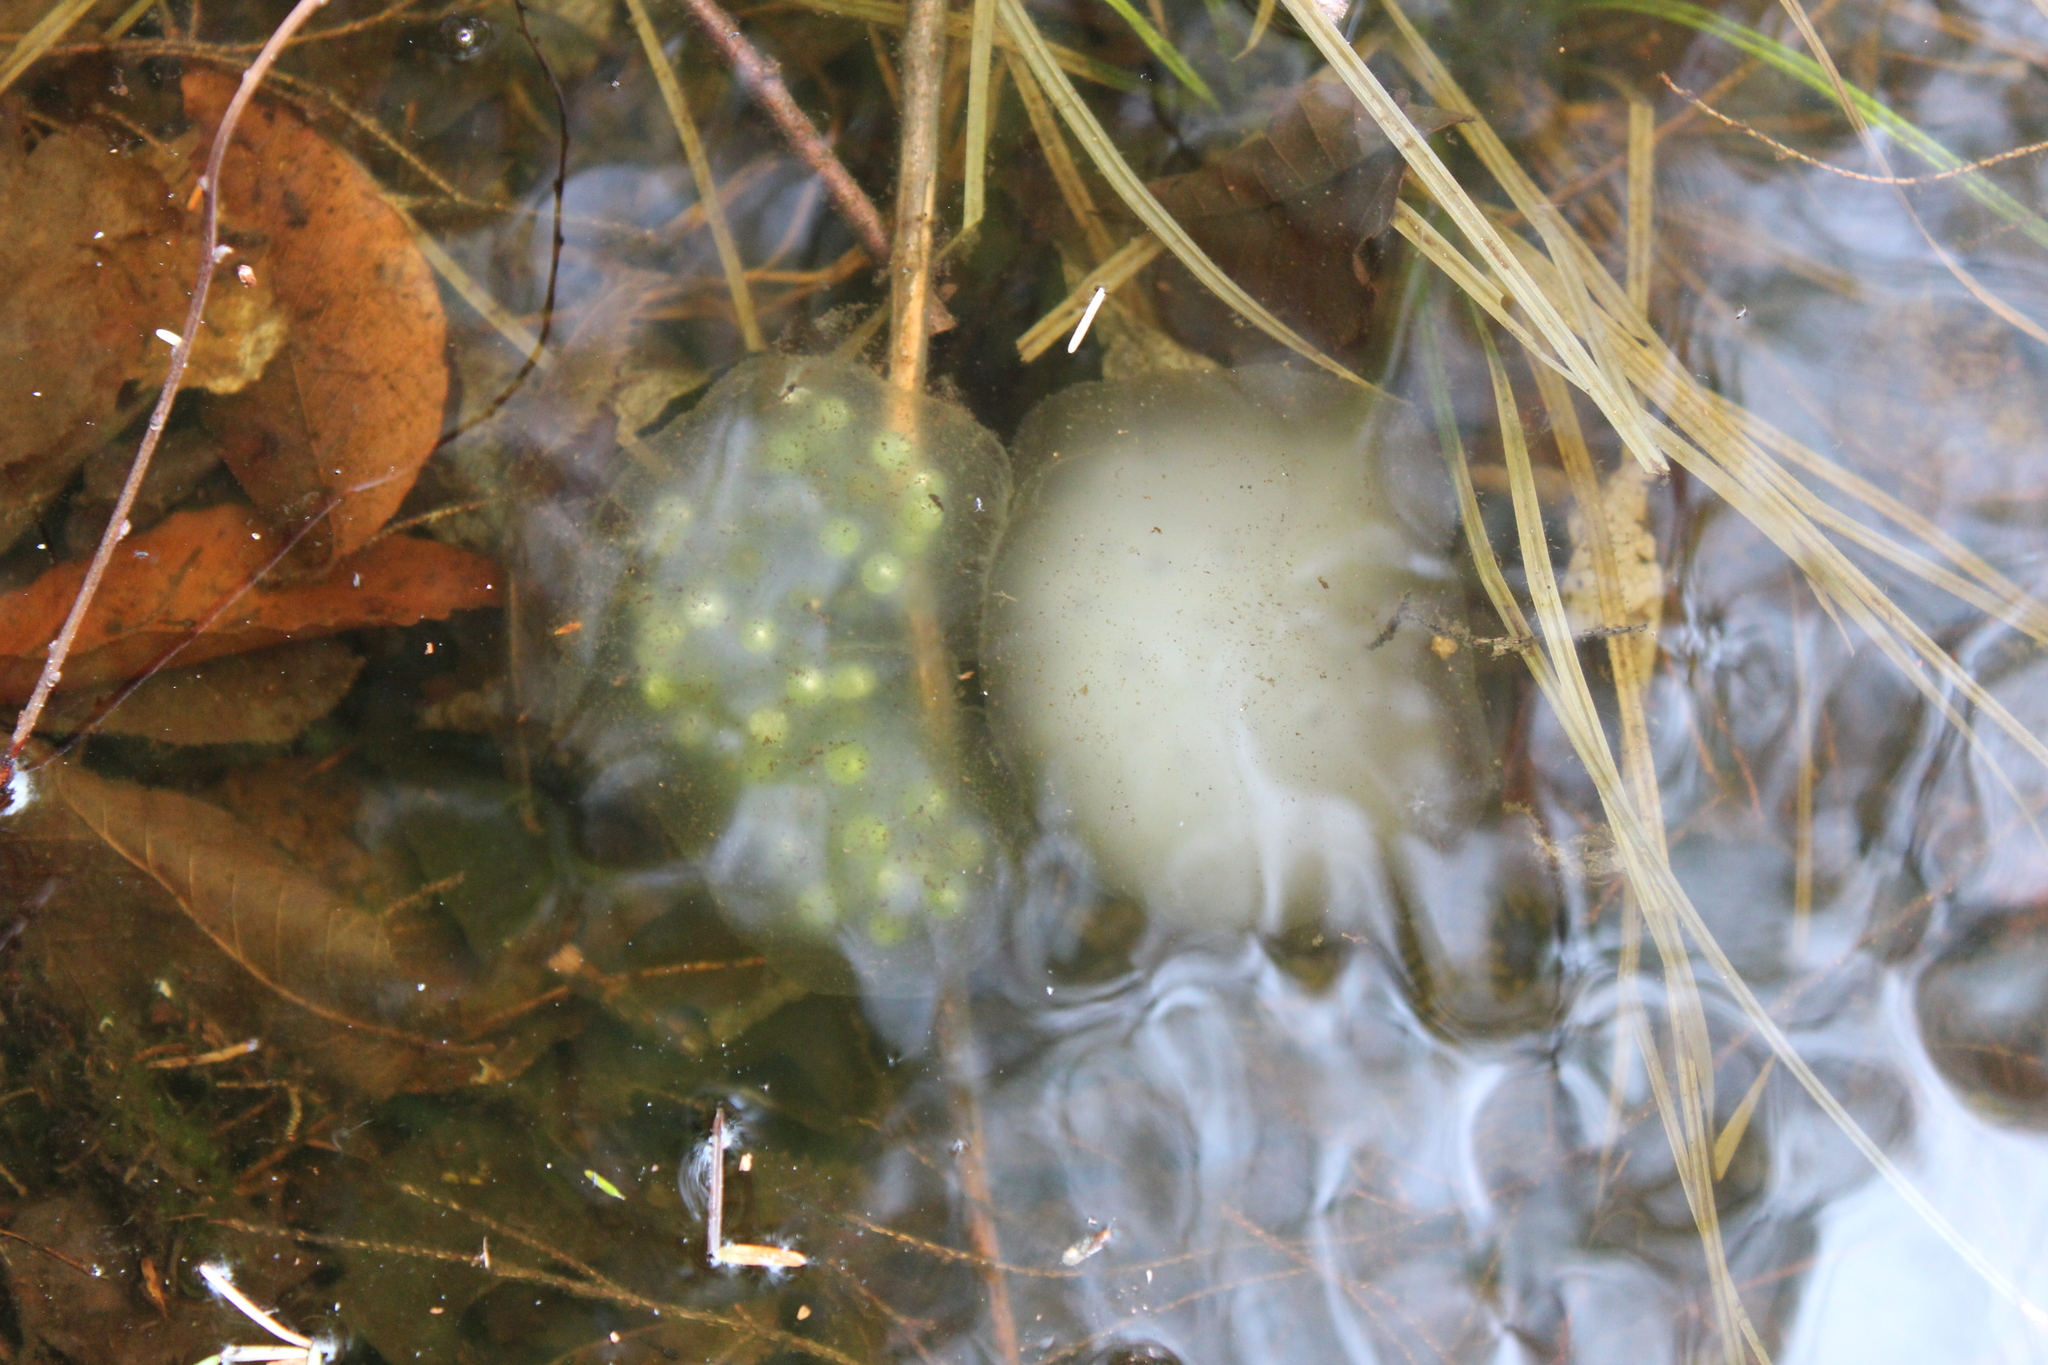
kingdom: Animalia
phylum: Chordata
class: Amphibia
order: Caudata
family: Ambystomatidae
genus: Ambystoma
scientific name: Ambystoma maculatum
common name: Spotted salamander
